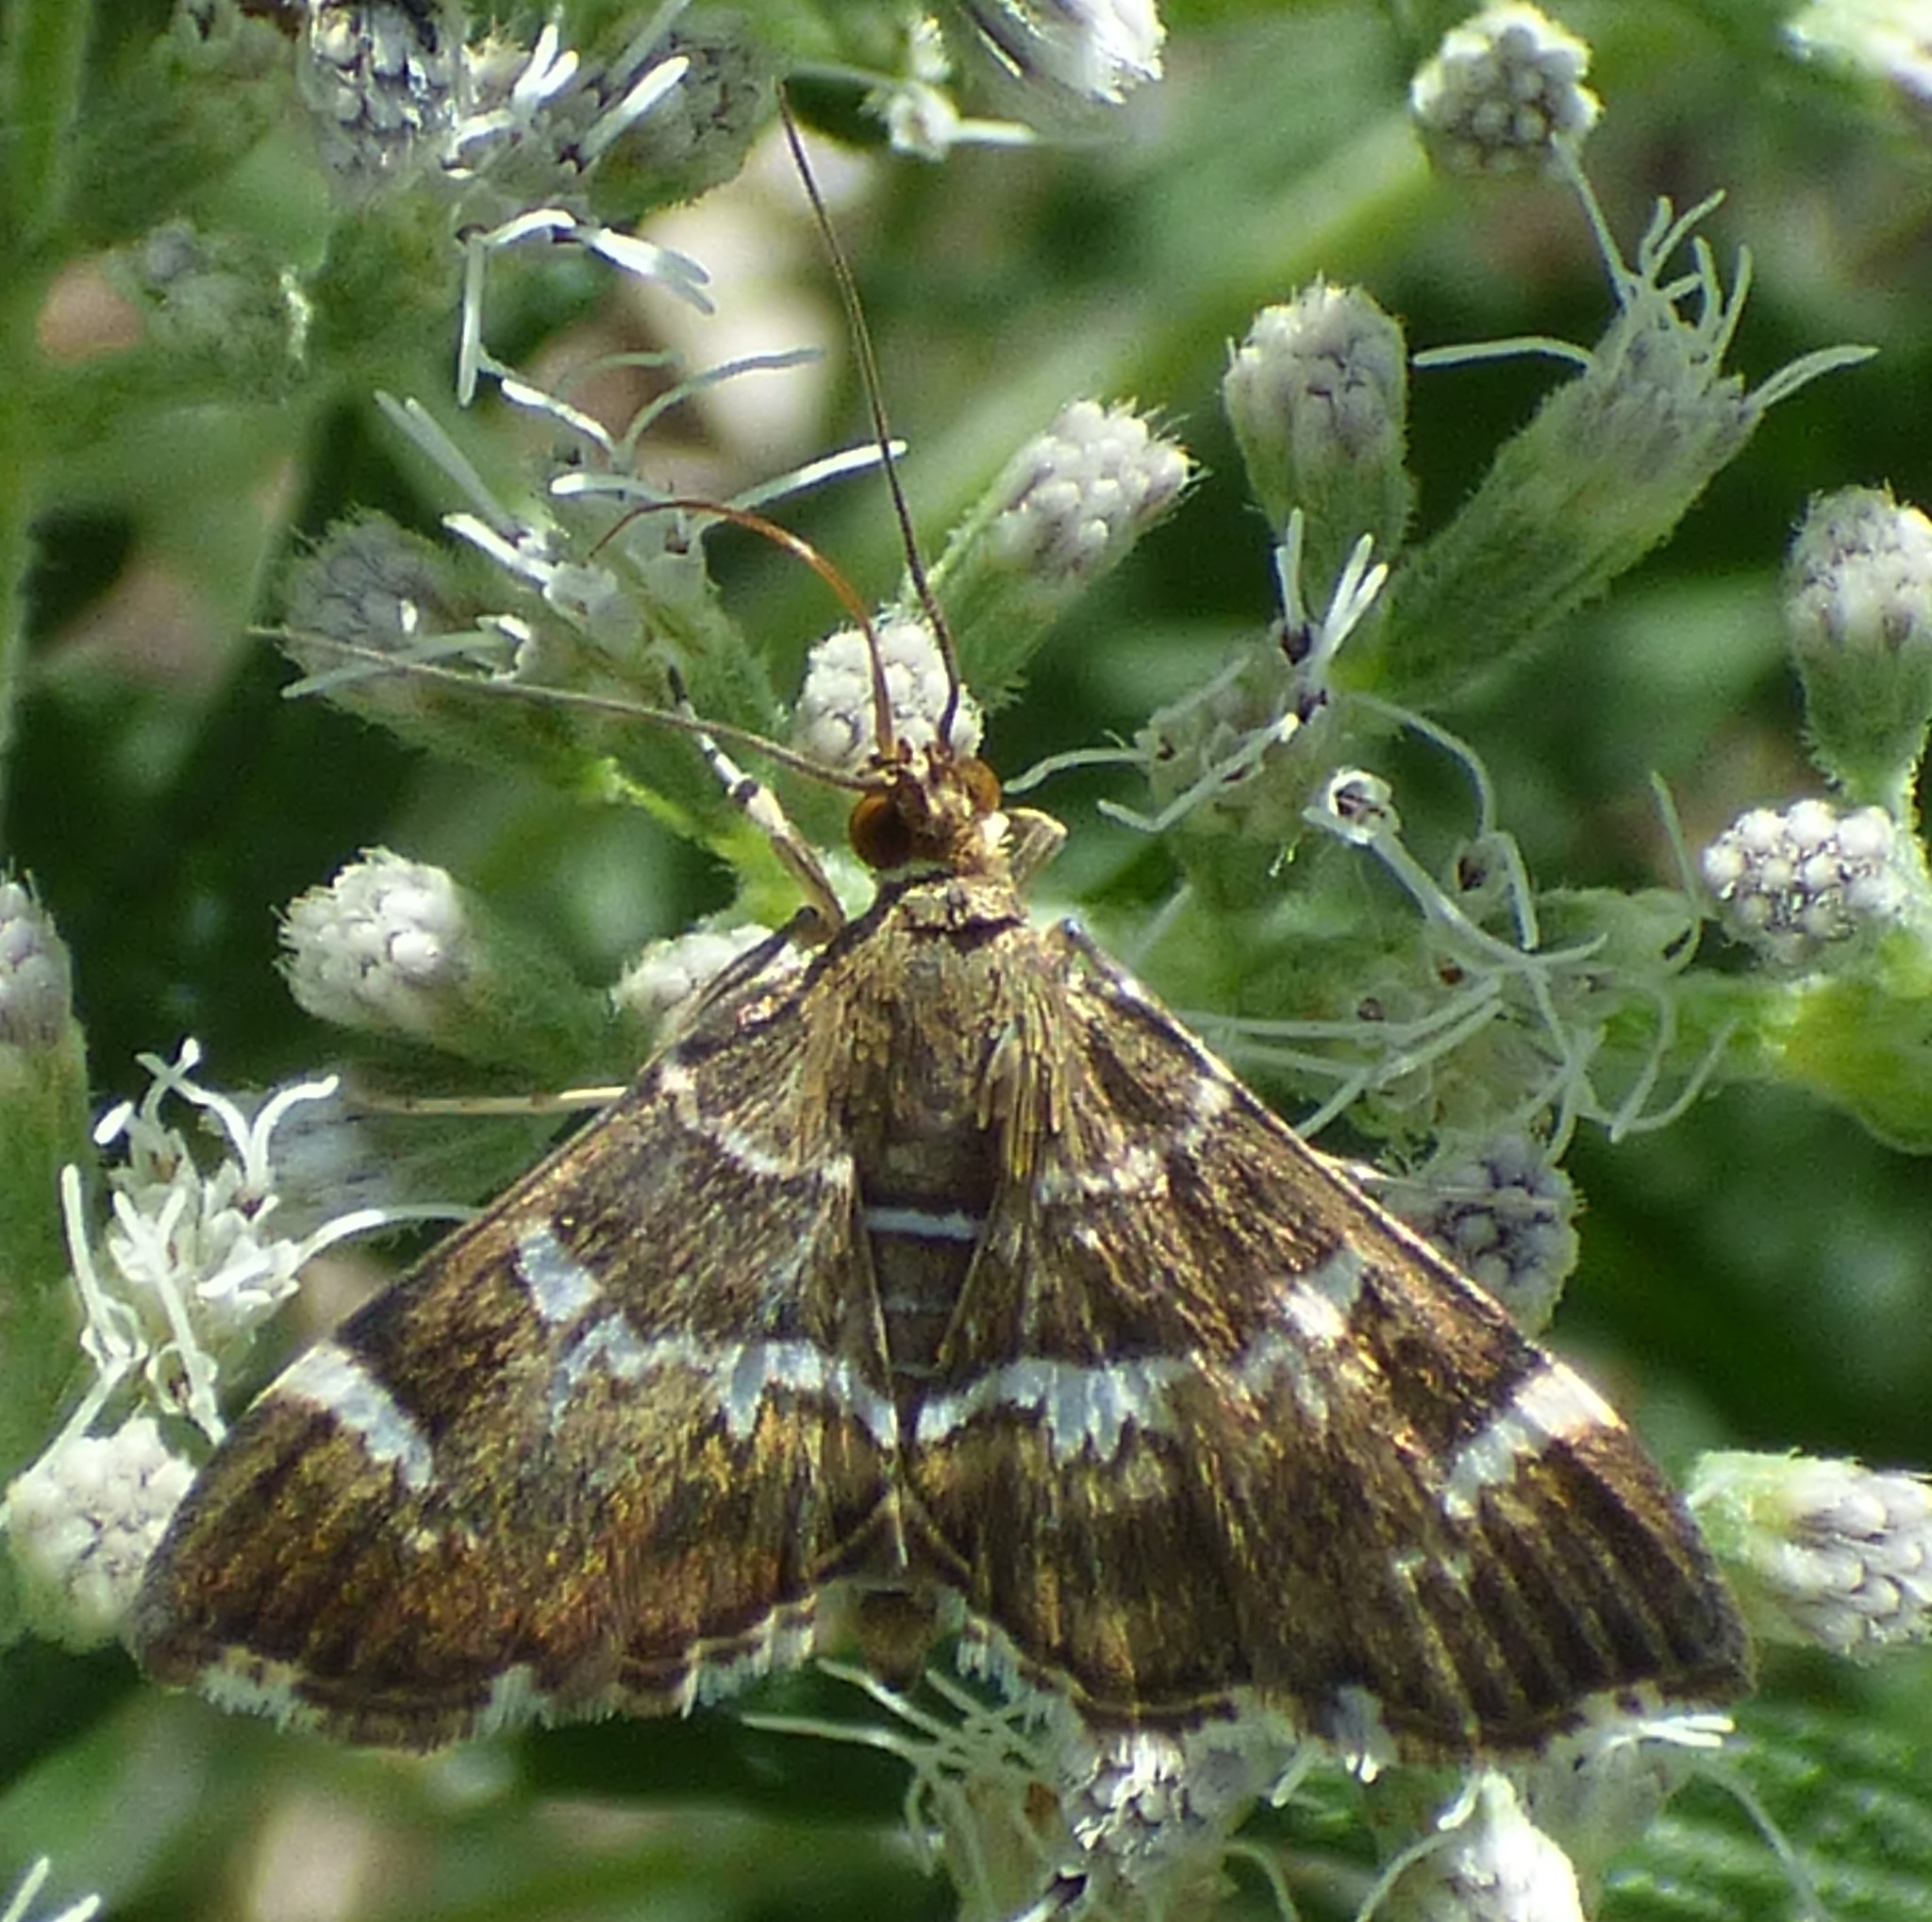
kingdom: Animalia
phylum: Arthropoda
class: Insecta
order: Lepidoptera
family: Crambidae
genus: Hymenia
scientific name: Hymenia perspectalis
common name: Spotted beet webworm
